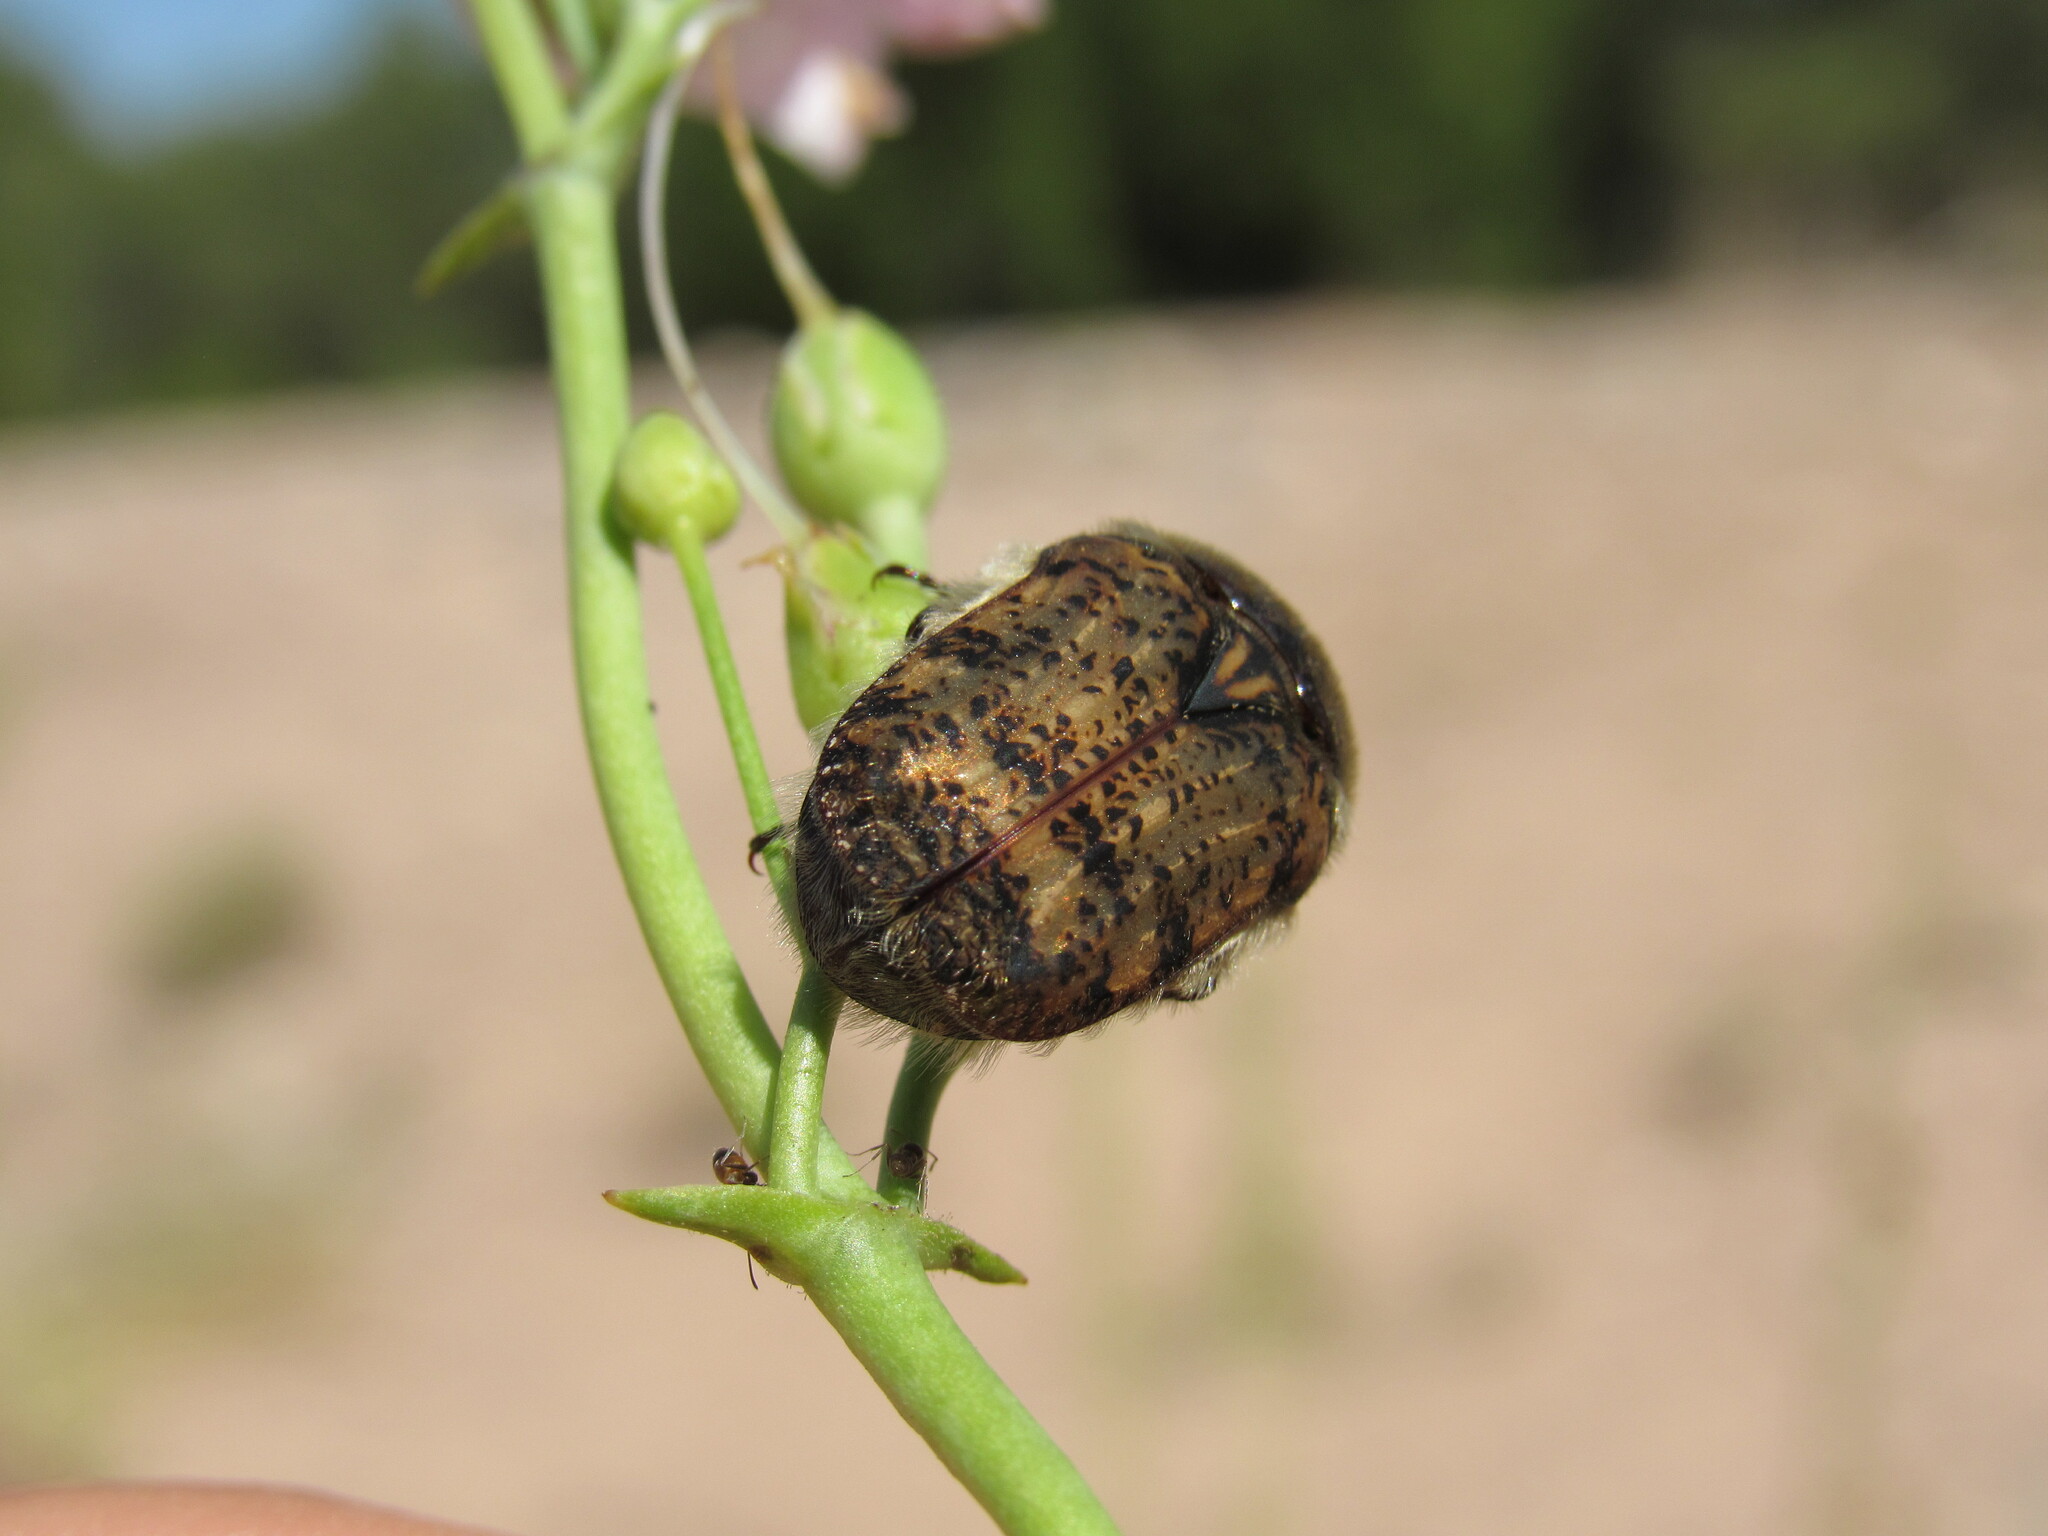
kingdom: Animalia
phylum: Arthropoda
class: Insecta
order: Coleoptera
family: Scarabaeidae
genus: Euphoria
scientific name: Euphoria inda
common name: Bumble flower beetle
